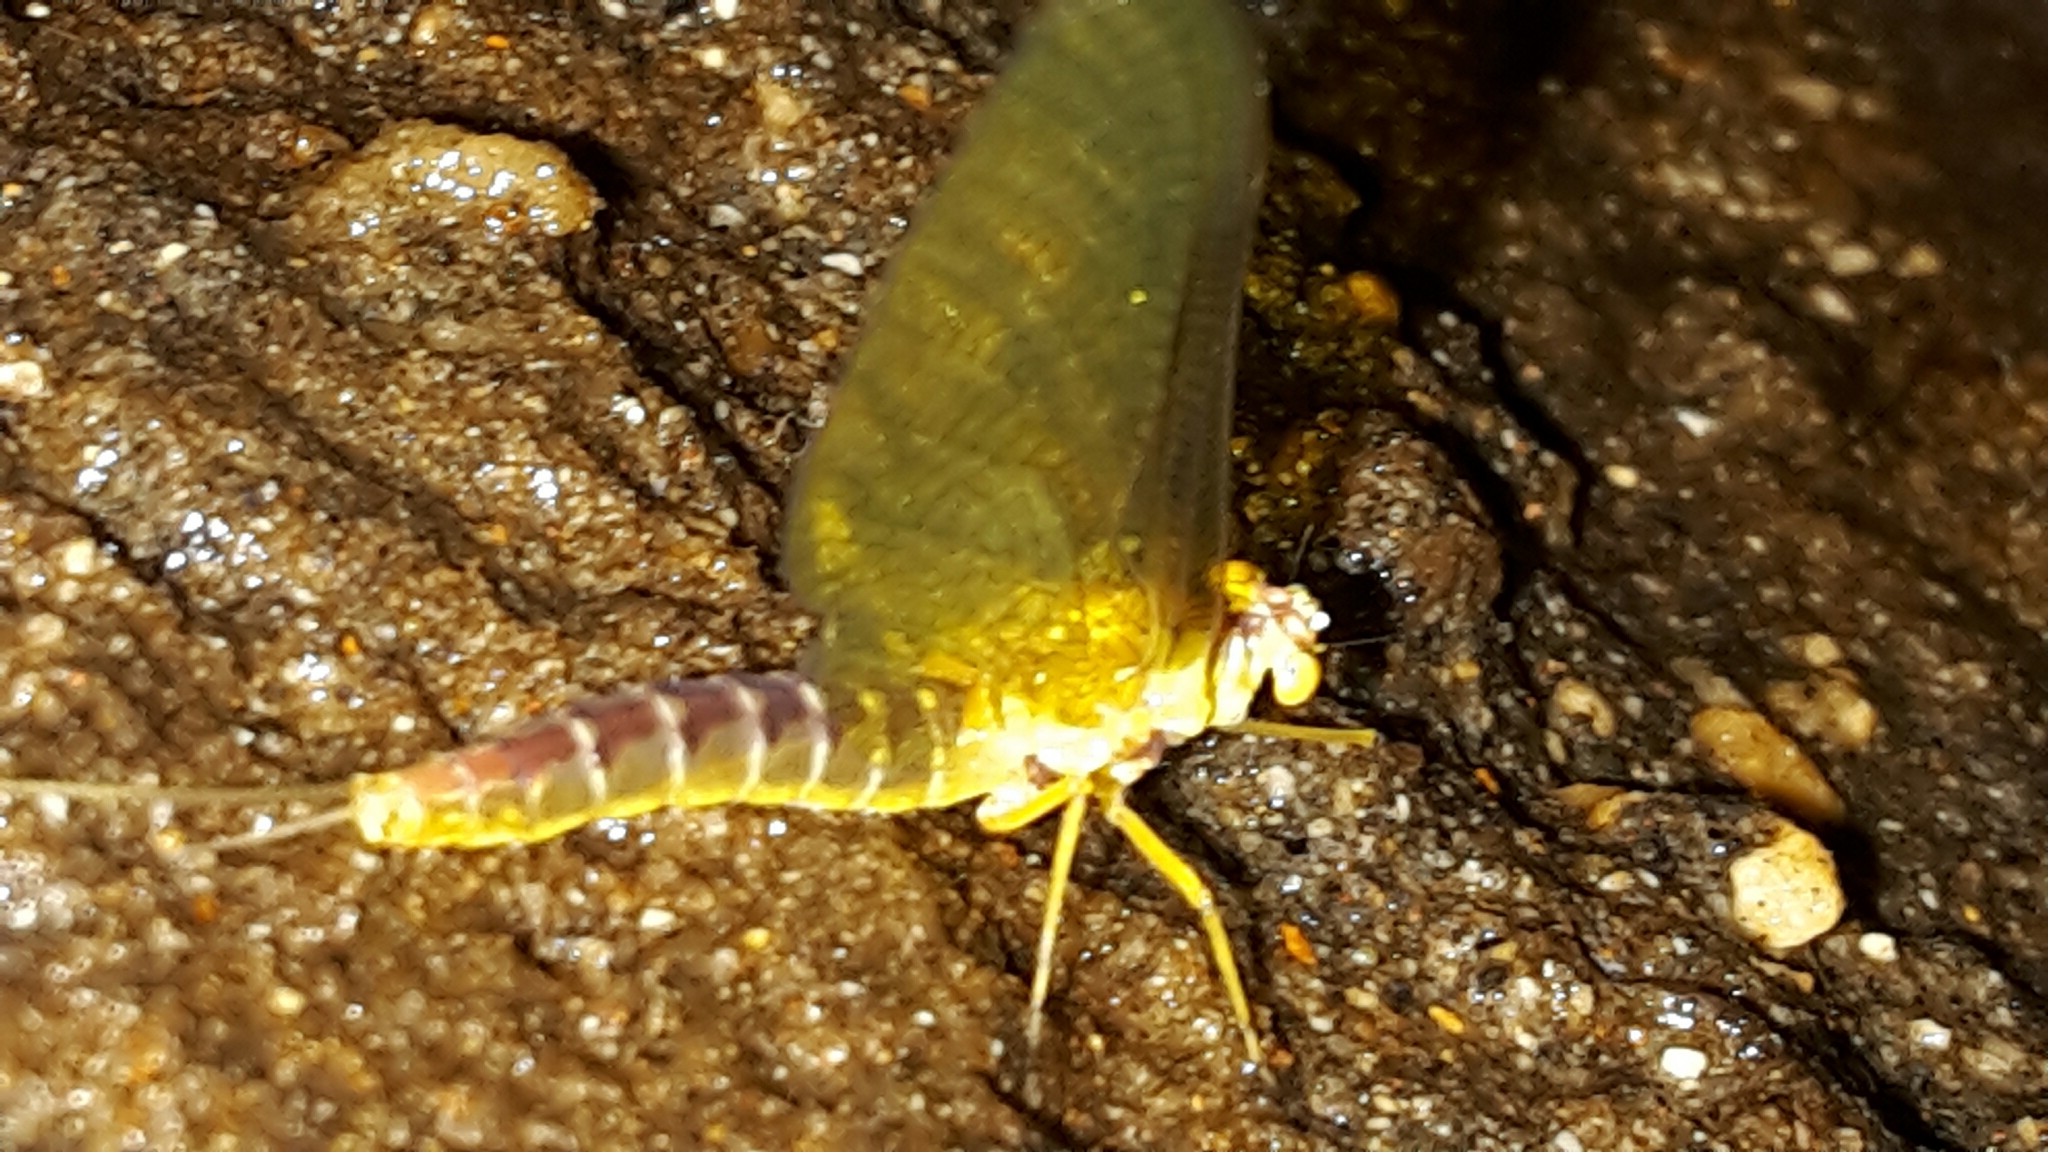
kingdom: Animalia
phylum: Arthropoda
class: Insecta
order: Ephemeroptera
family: Ameletopsidae
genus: Ameletopsis
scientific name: Ameletopsis perscitus
